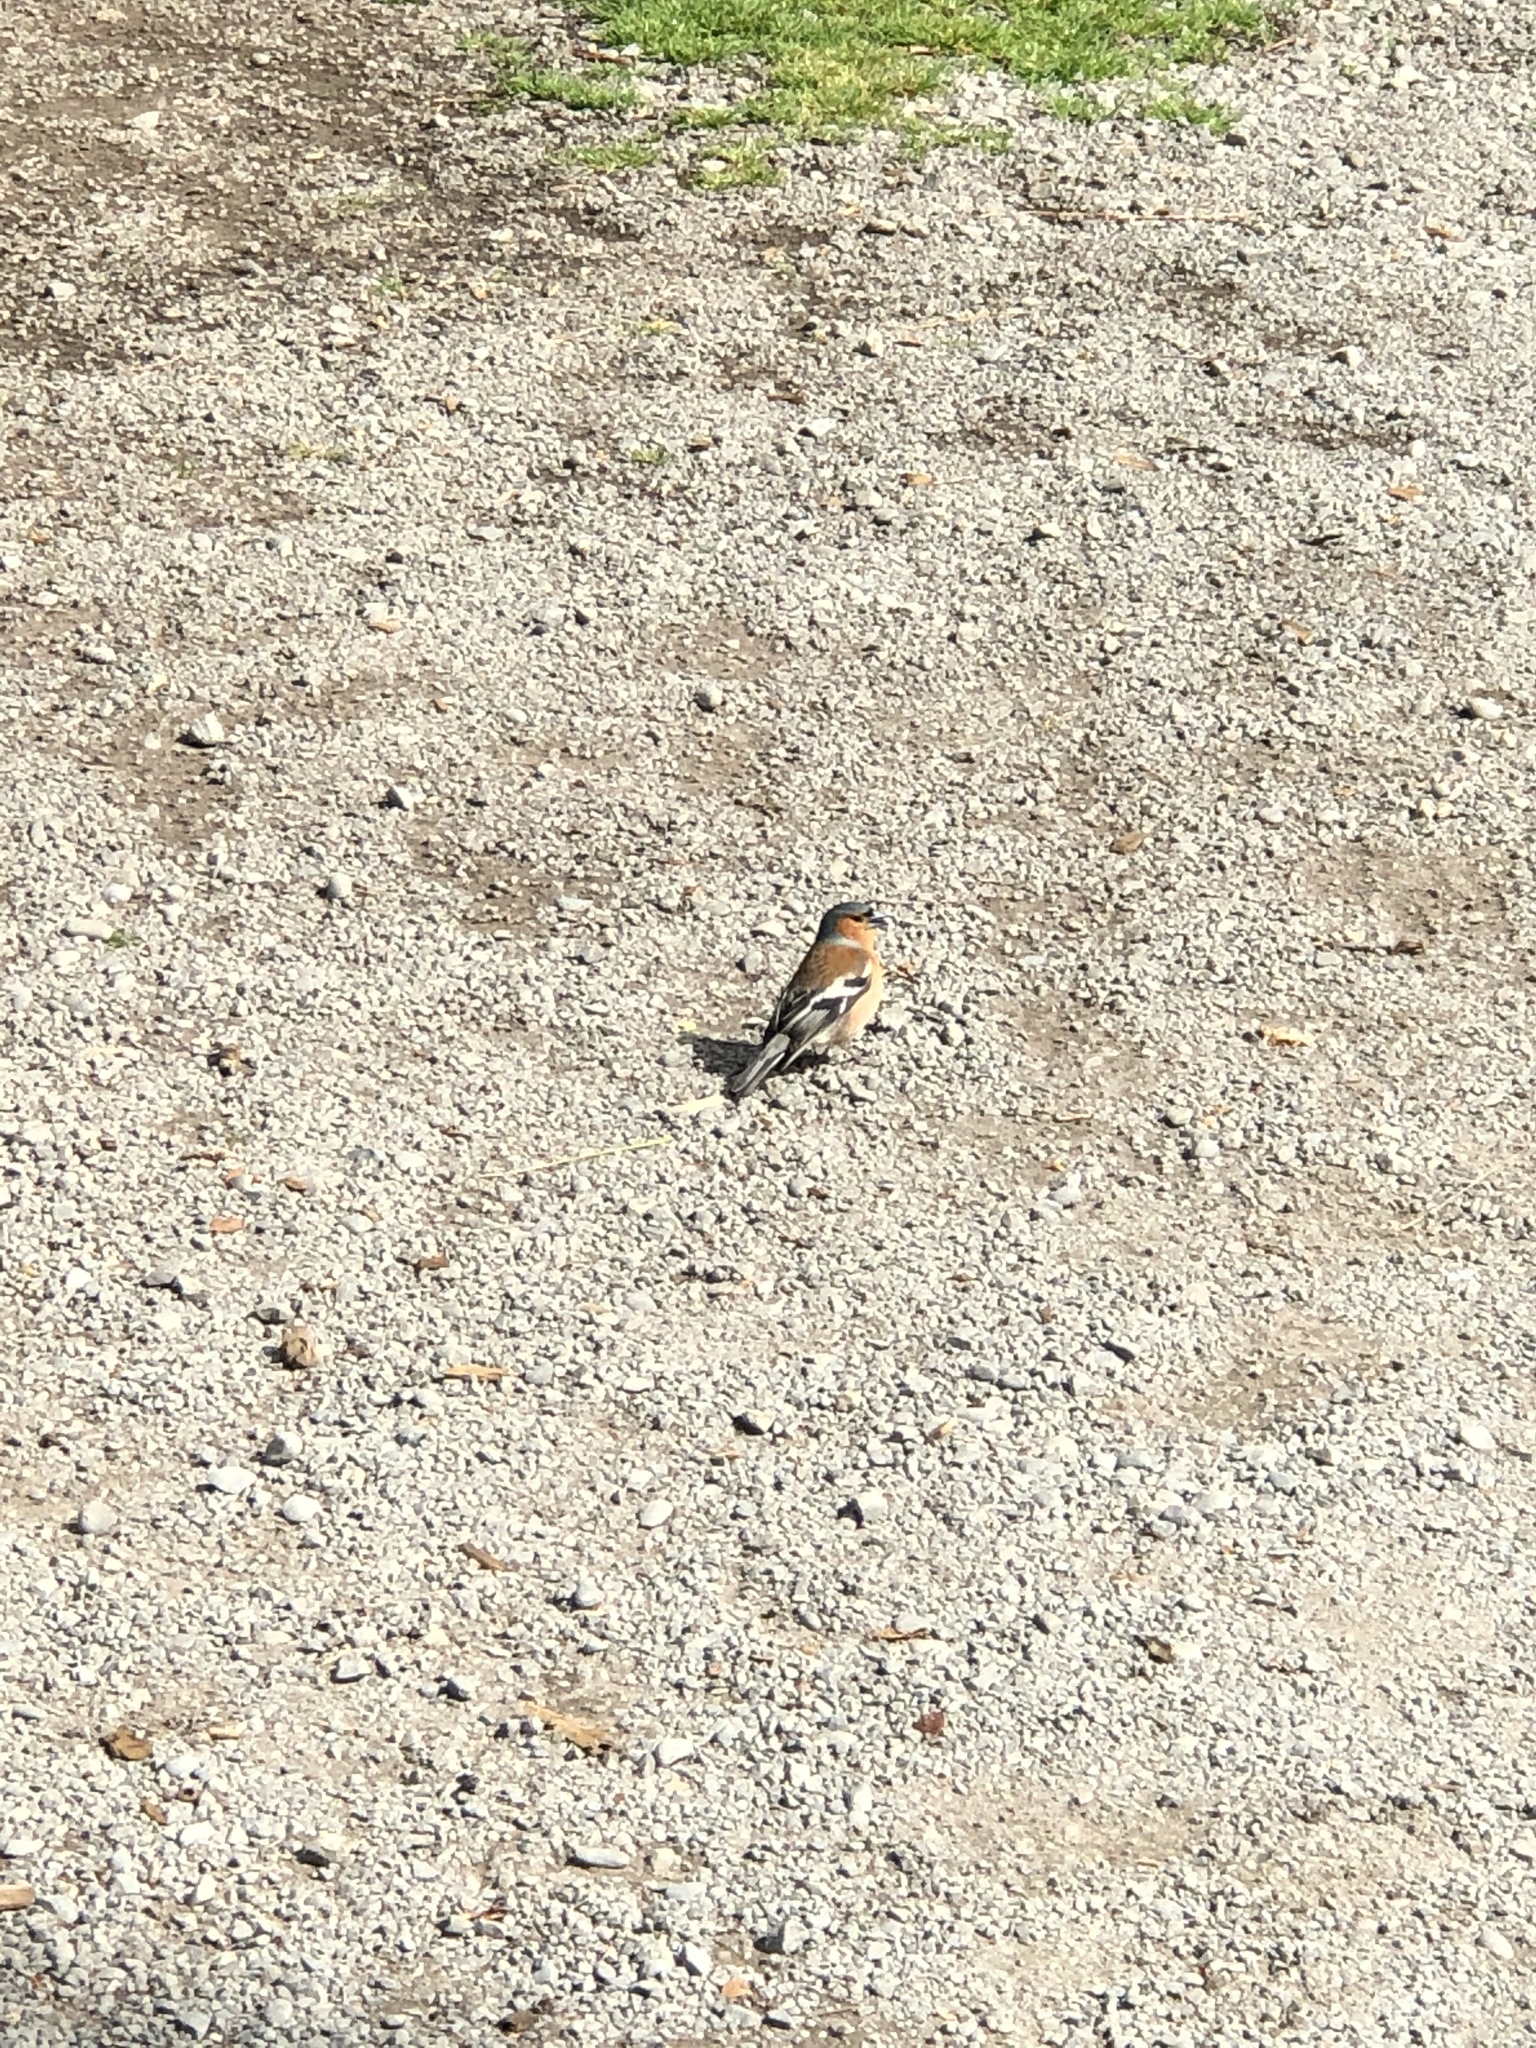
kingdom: Animalia
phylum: Chordata
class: Aves
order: Passeriformes
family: Fringillidae
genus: Fringilla
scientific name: Fringilla coelebs
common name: Common chaffinch
